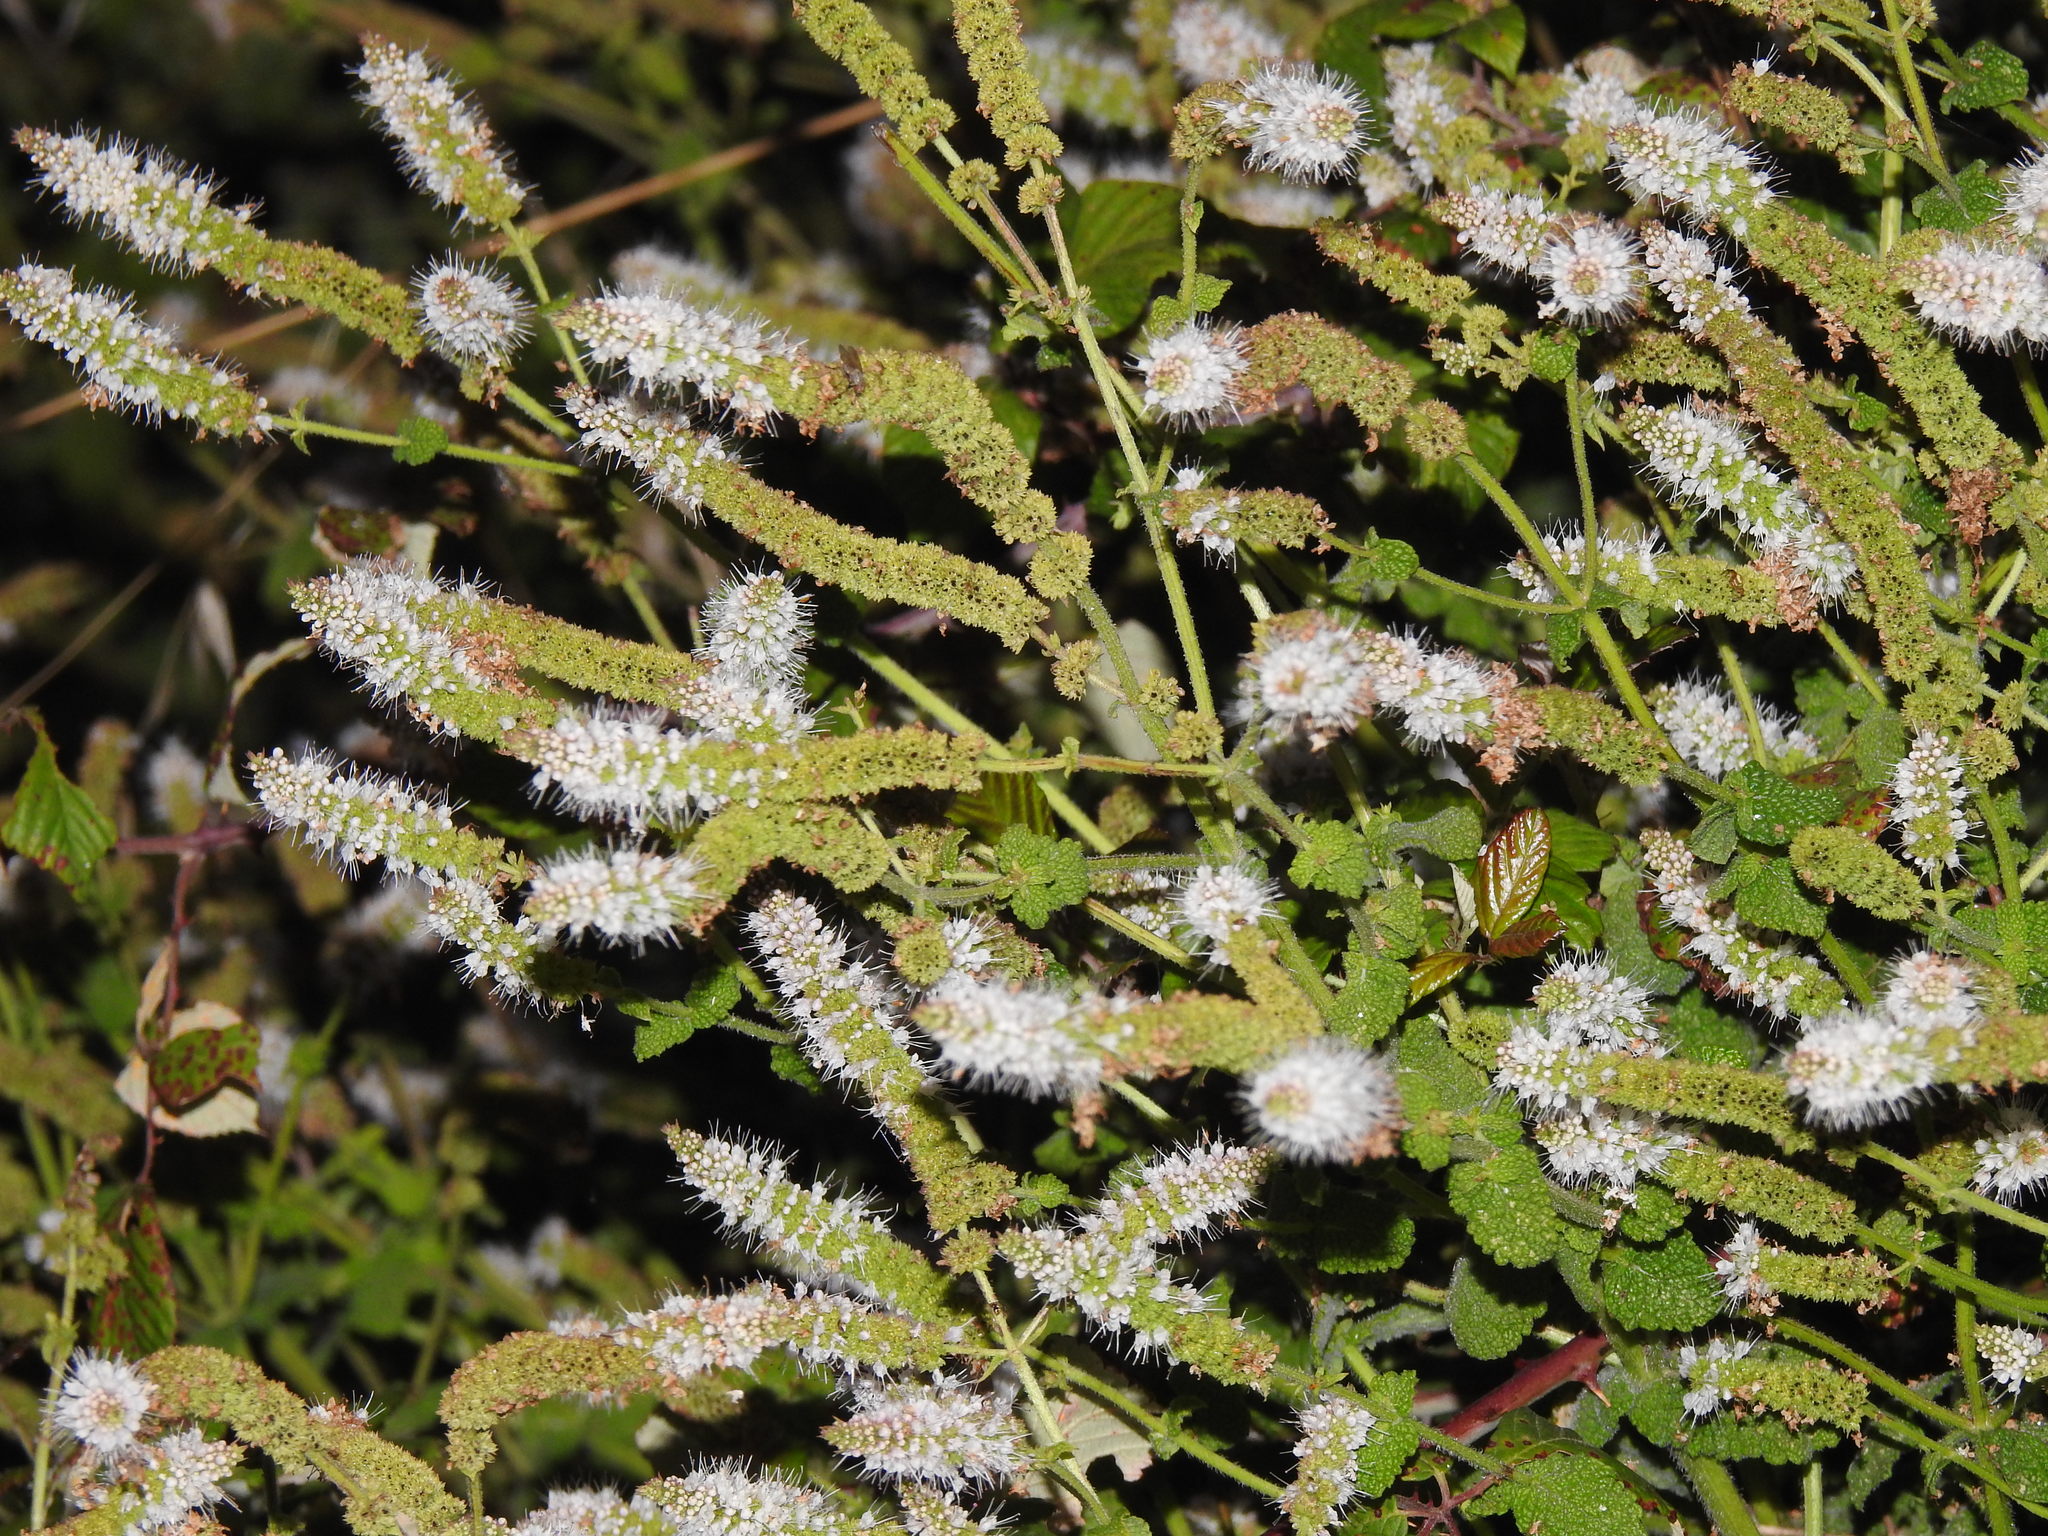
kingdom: Plantae
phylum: Tracheophyta
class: Magnoliopsida
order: Lamiales
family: Lamiaceae
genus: Mentha
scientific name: Mentha suaveolens
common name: Apple mint
